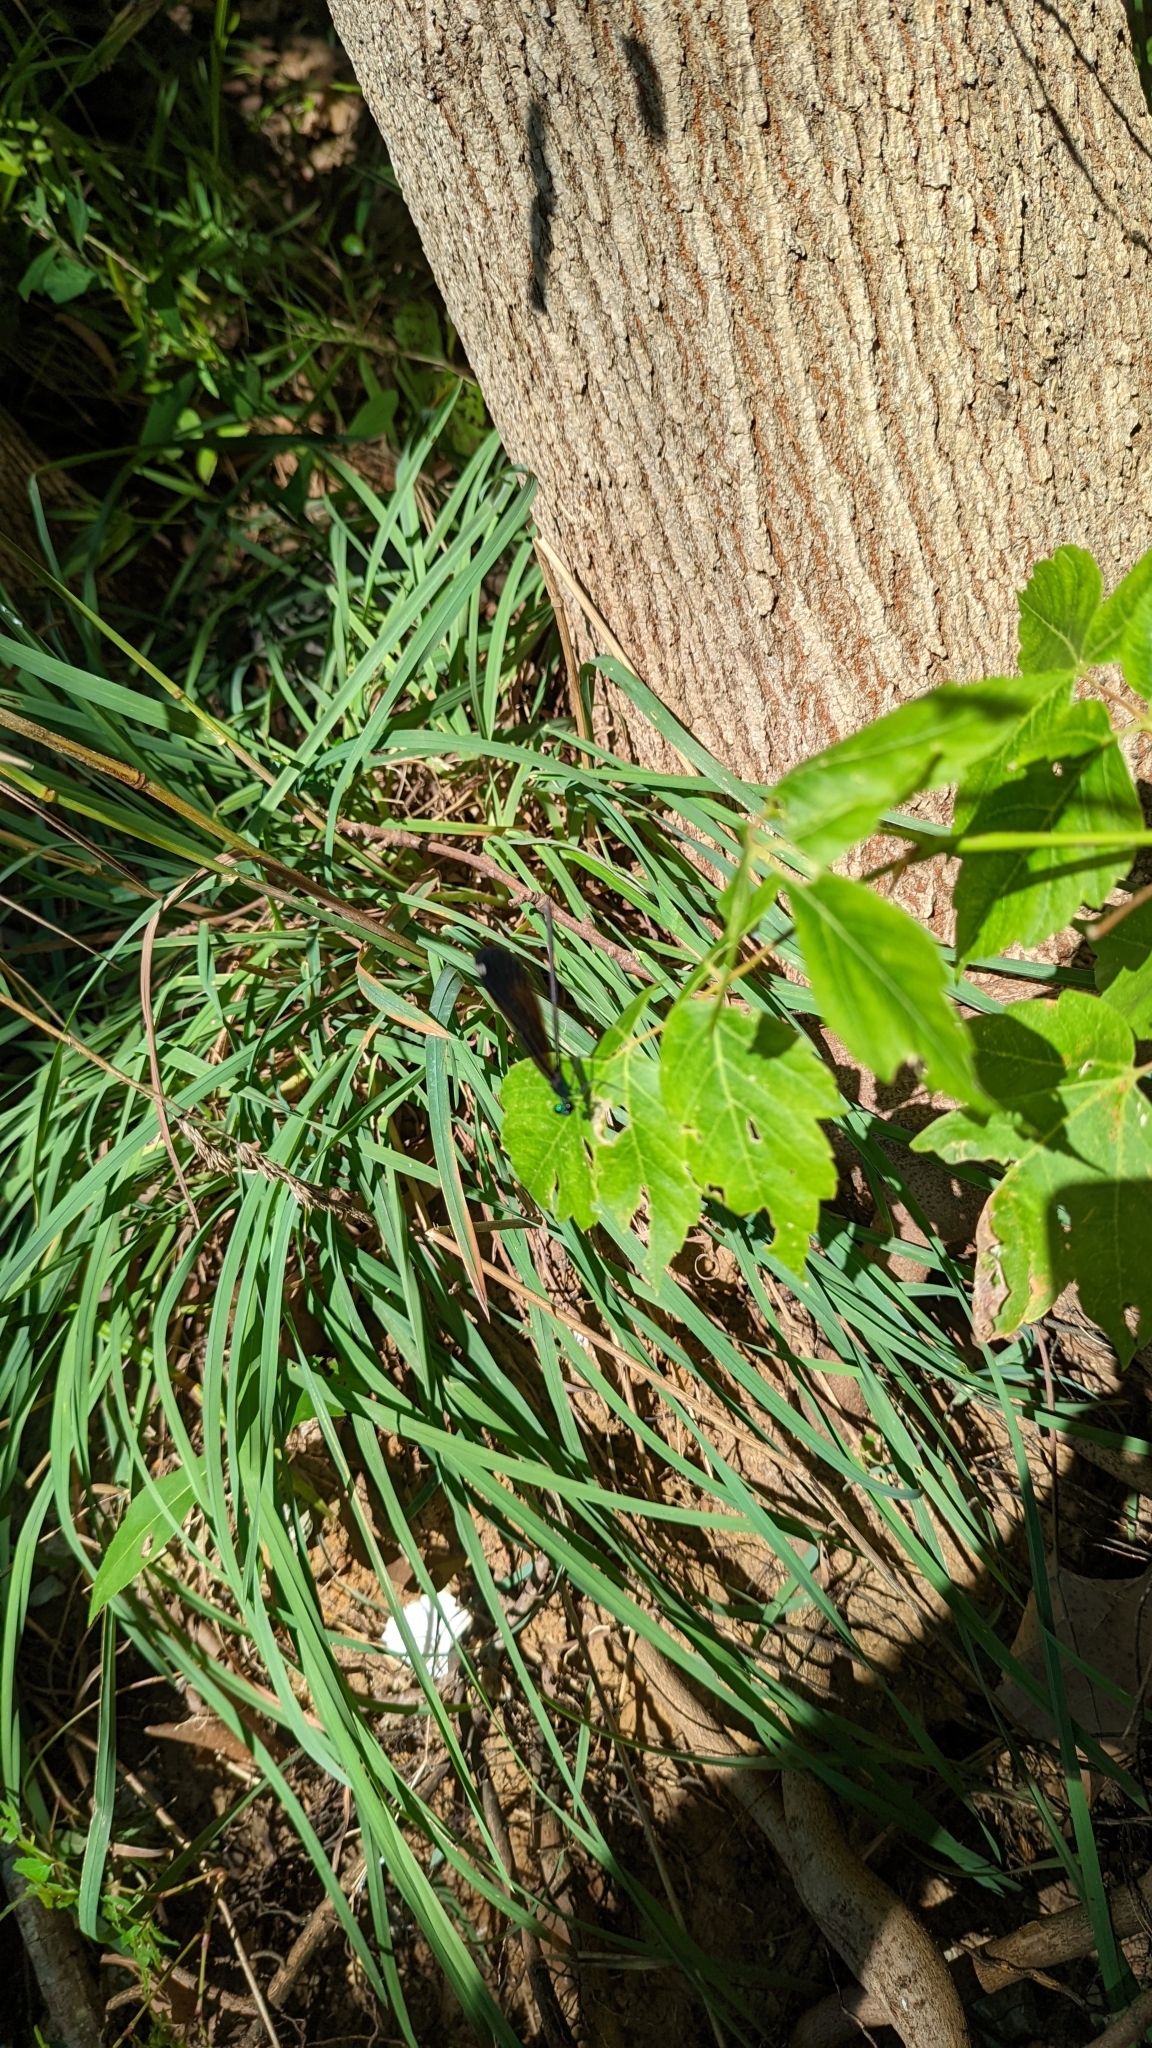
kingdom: Animalia
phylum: Arthropoda
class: Insecta
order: Odonata
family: Calopterygidae
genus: Calopteryx
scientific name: Calopteryx maculata
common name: Ebony jewelwing
